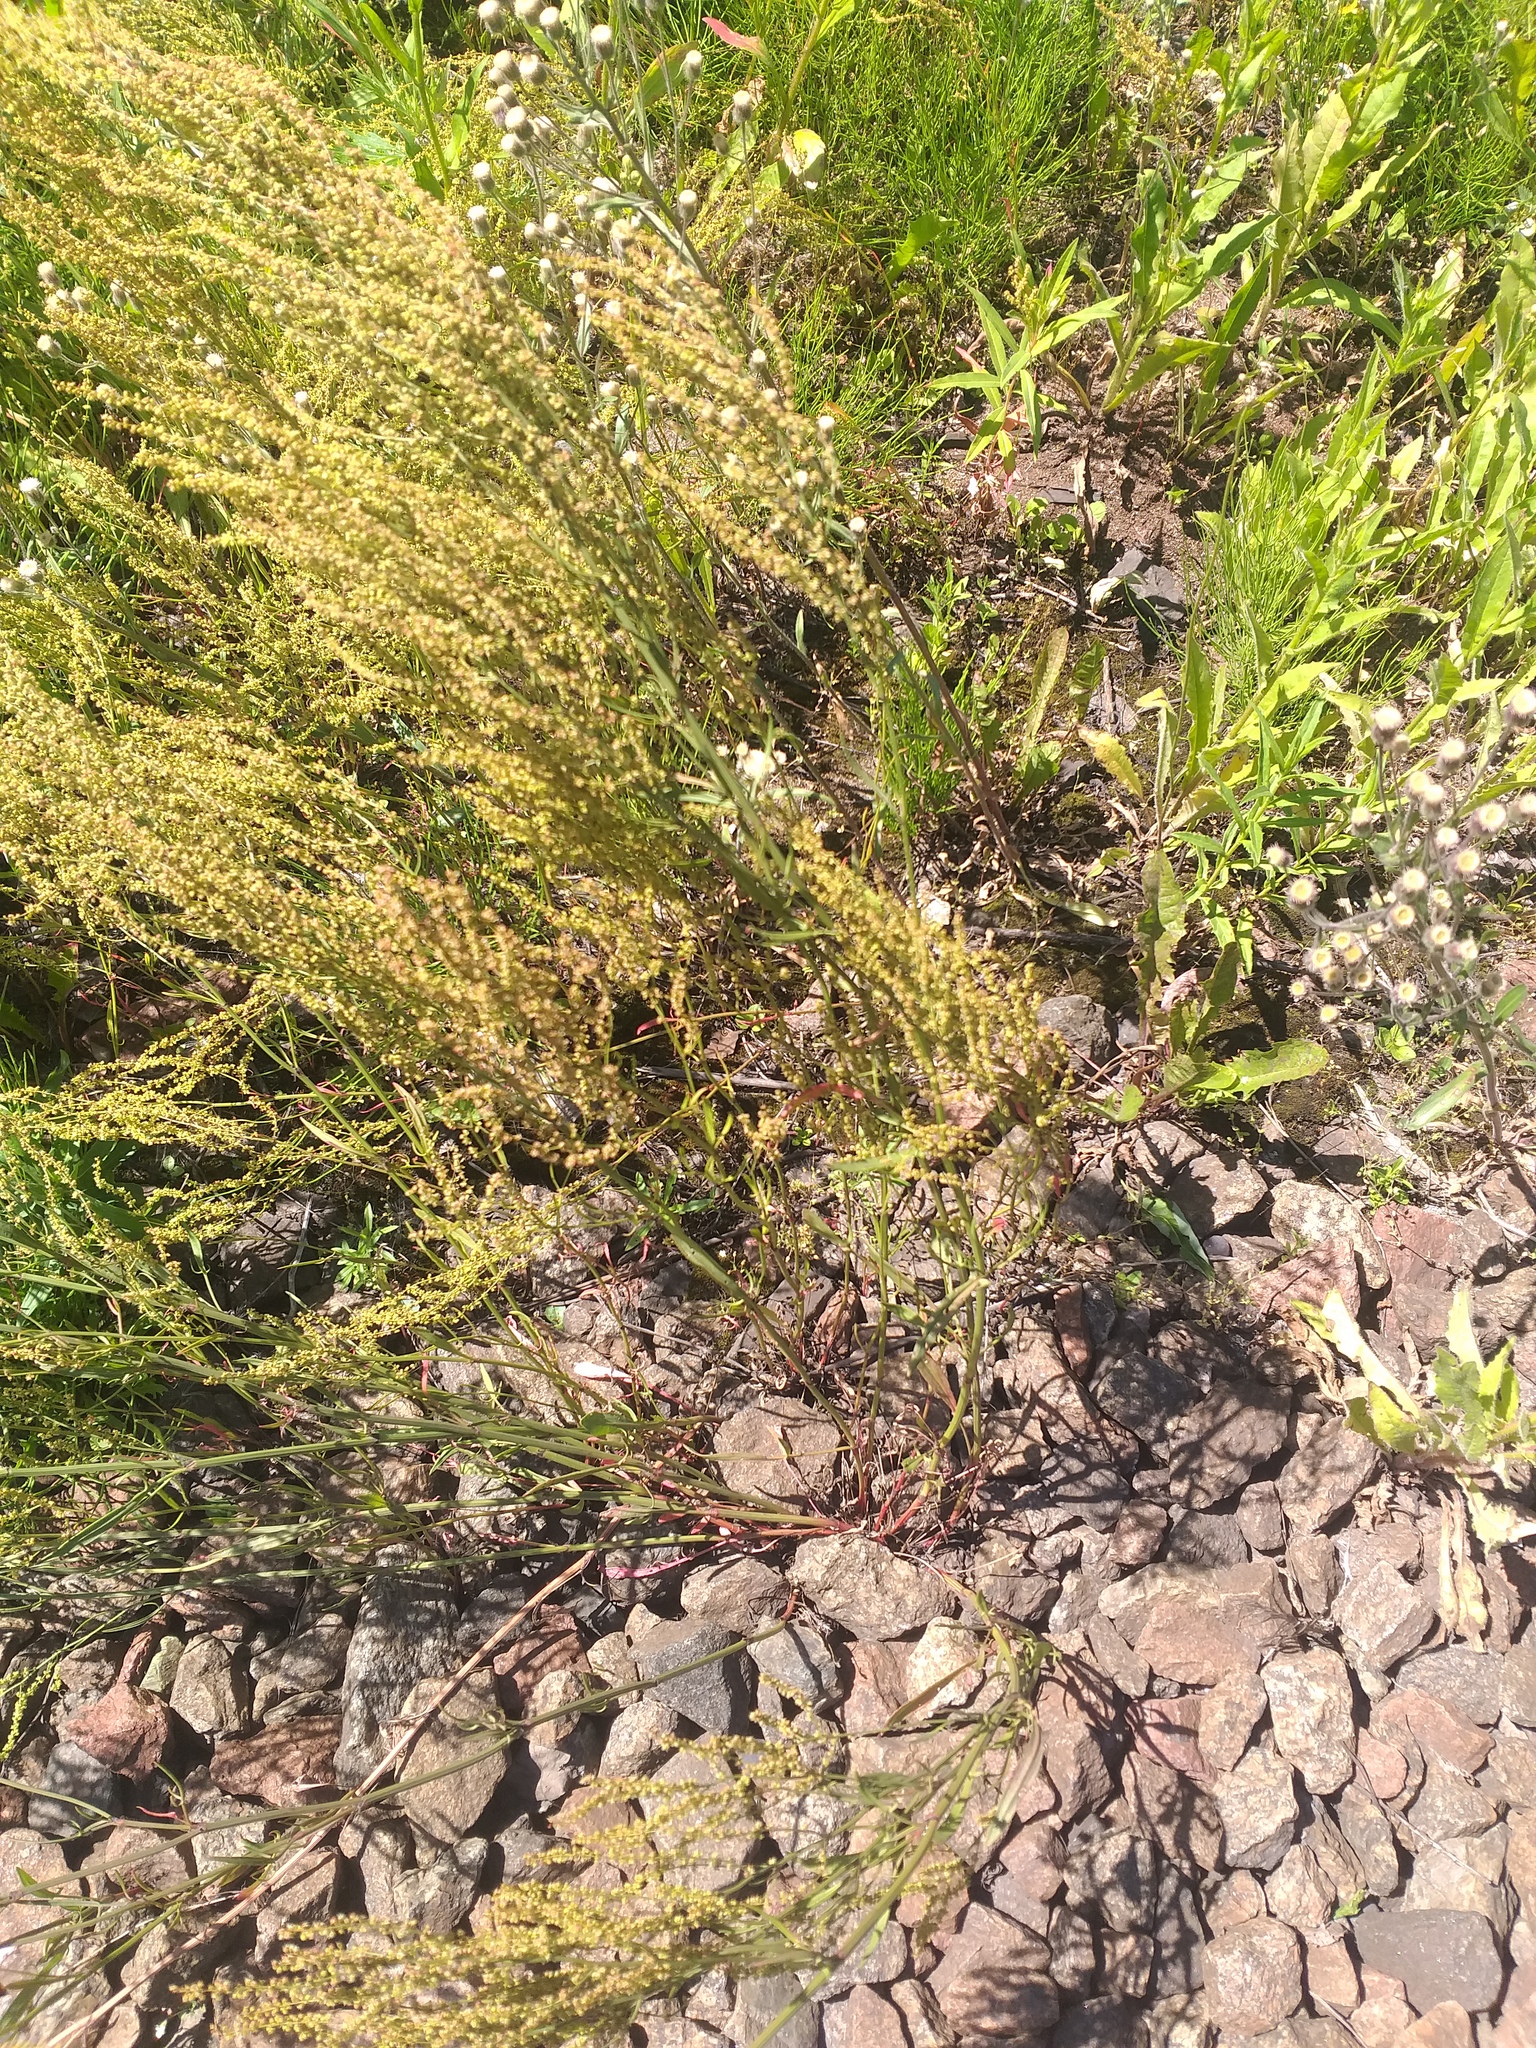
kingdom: Plantae
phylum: Tracheophyta
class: Magnoliopsida
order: Caryophyllales
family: Polygonaceae
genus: Rumex
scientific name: Rumex acetosella
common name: Common sheep sorrel
